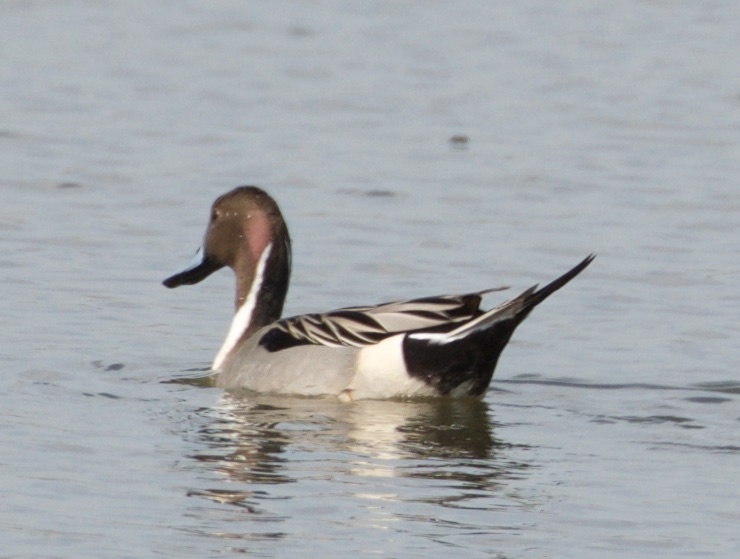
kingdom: Animalia
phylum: Chordata
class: Aves
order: Anseriformes
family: Anatidae
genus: Anas
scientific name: Anas acuta
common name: Northern pintail
